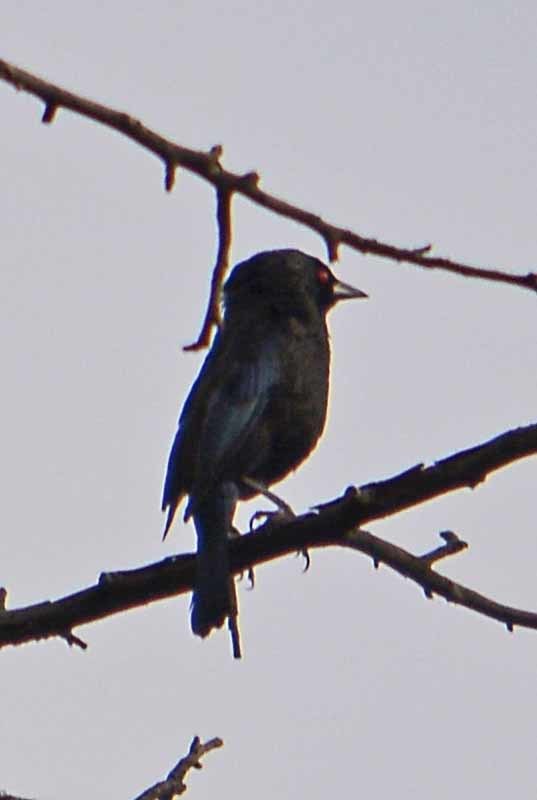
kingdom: Animalia
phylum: Chordata
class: Aves
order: Passeriformes
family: Icteridae
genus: Molothrus
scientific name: Molothrus aeneus
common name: Bronzed cowbird
